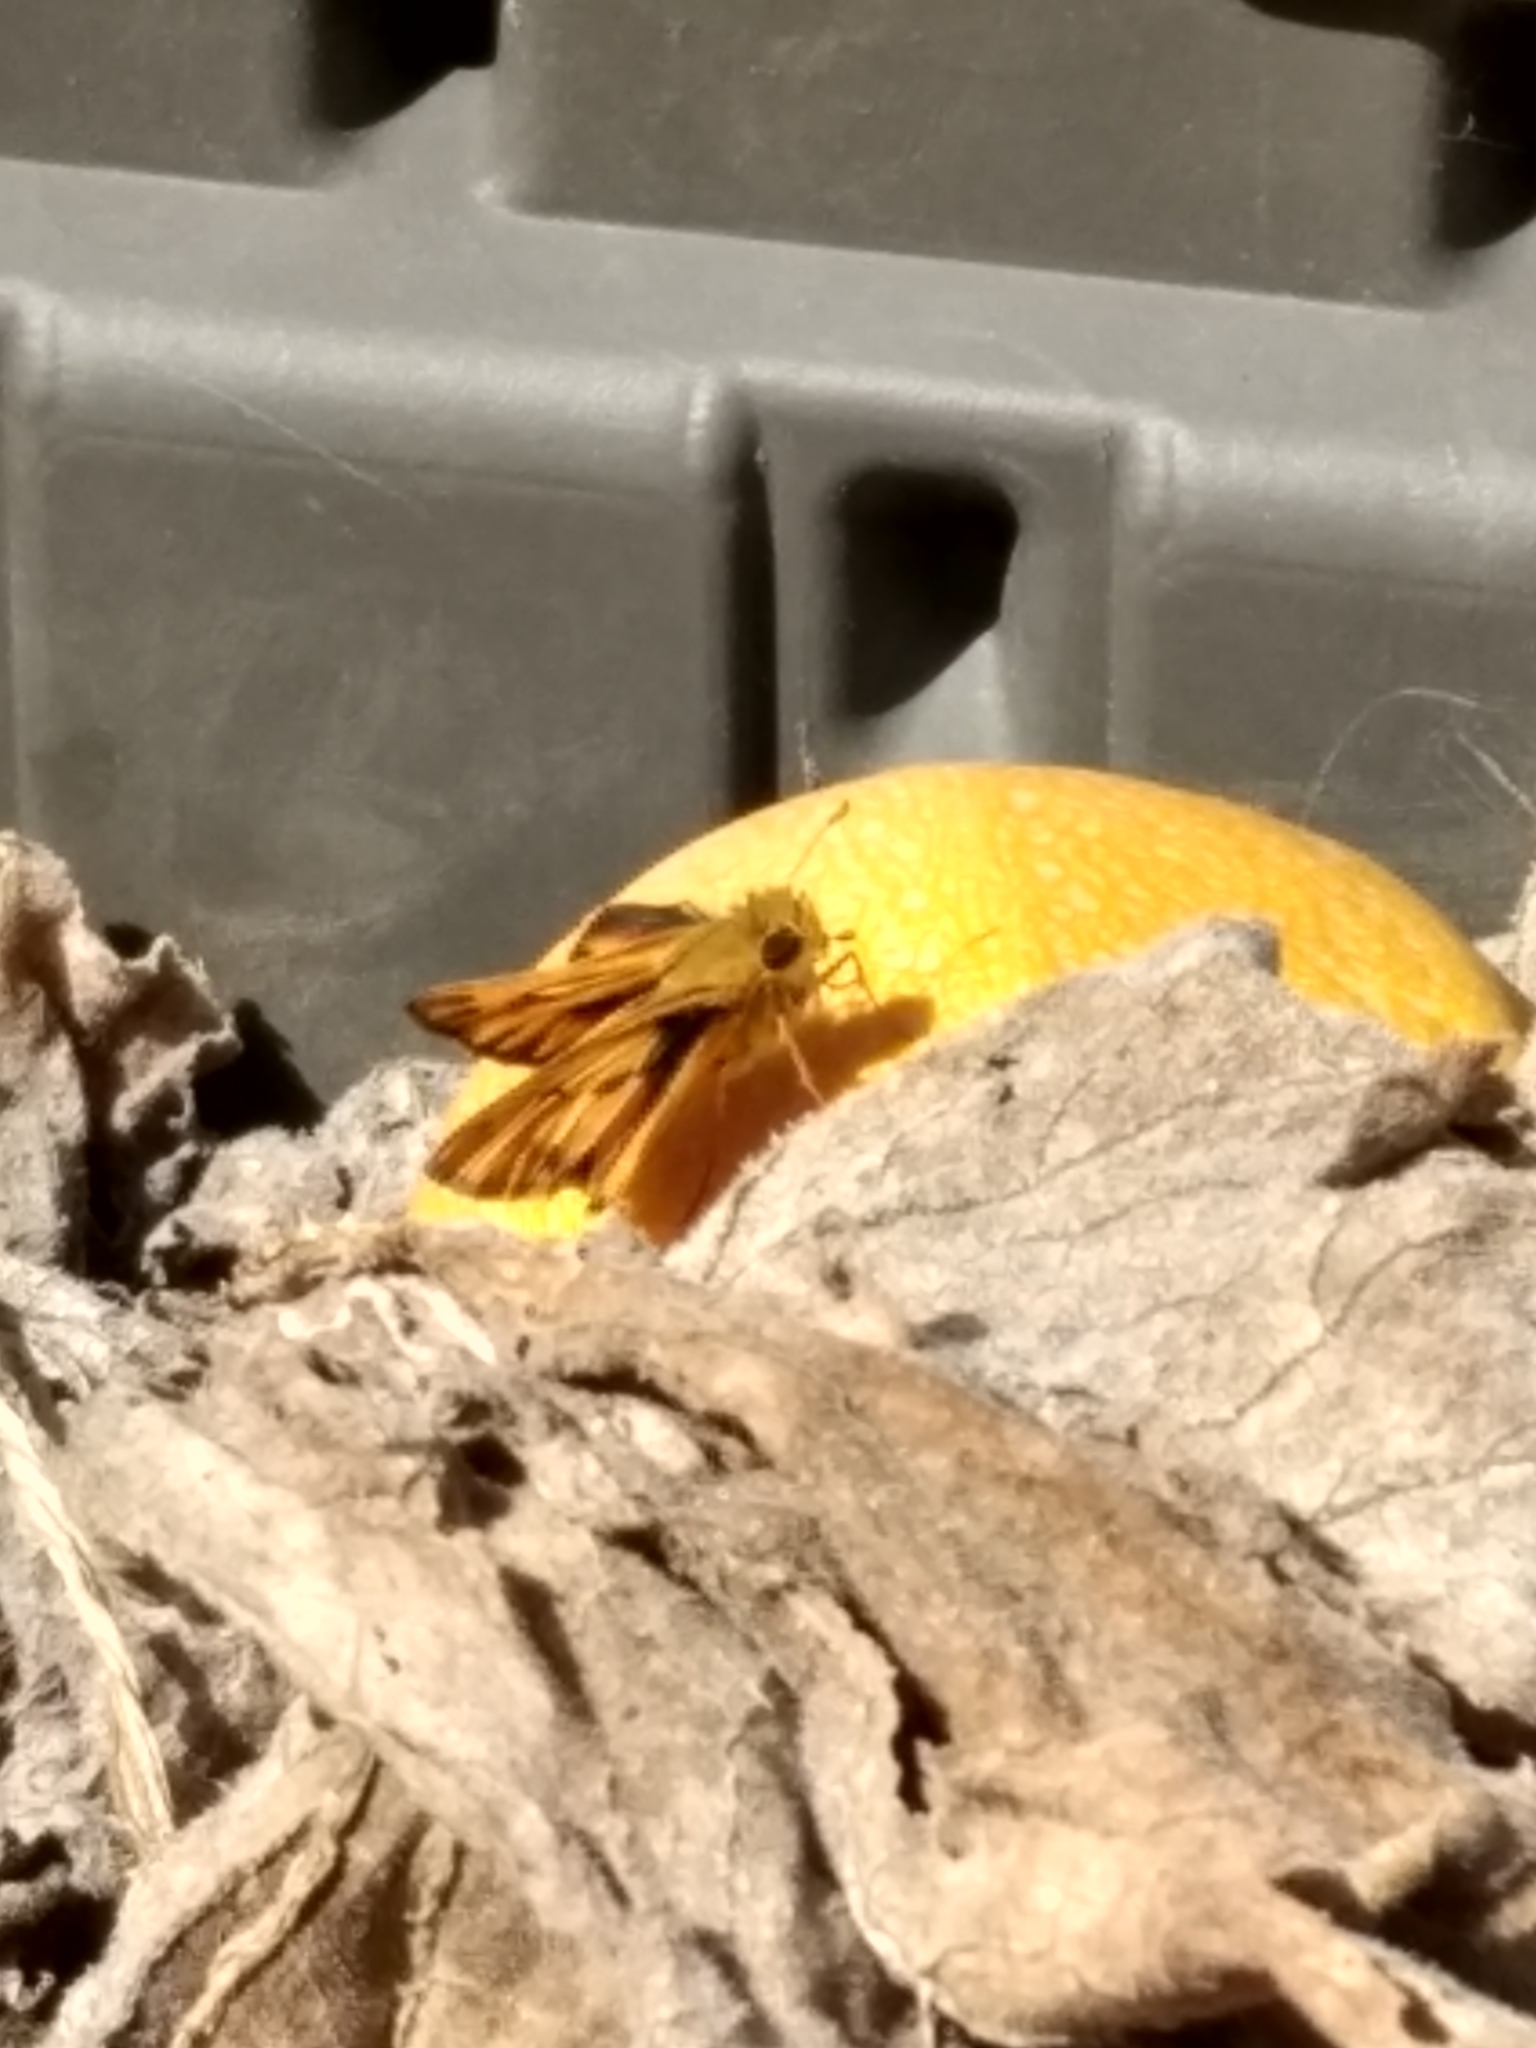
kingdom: Animalia
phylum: Arthropoda
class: Insecta
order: Lepidoptera
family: Hesperiidae
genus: Hylephila
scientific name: Hylephila phyleus
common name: Fiery skipper
